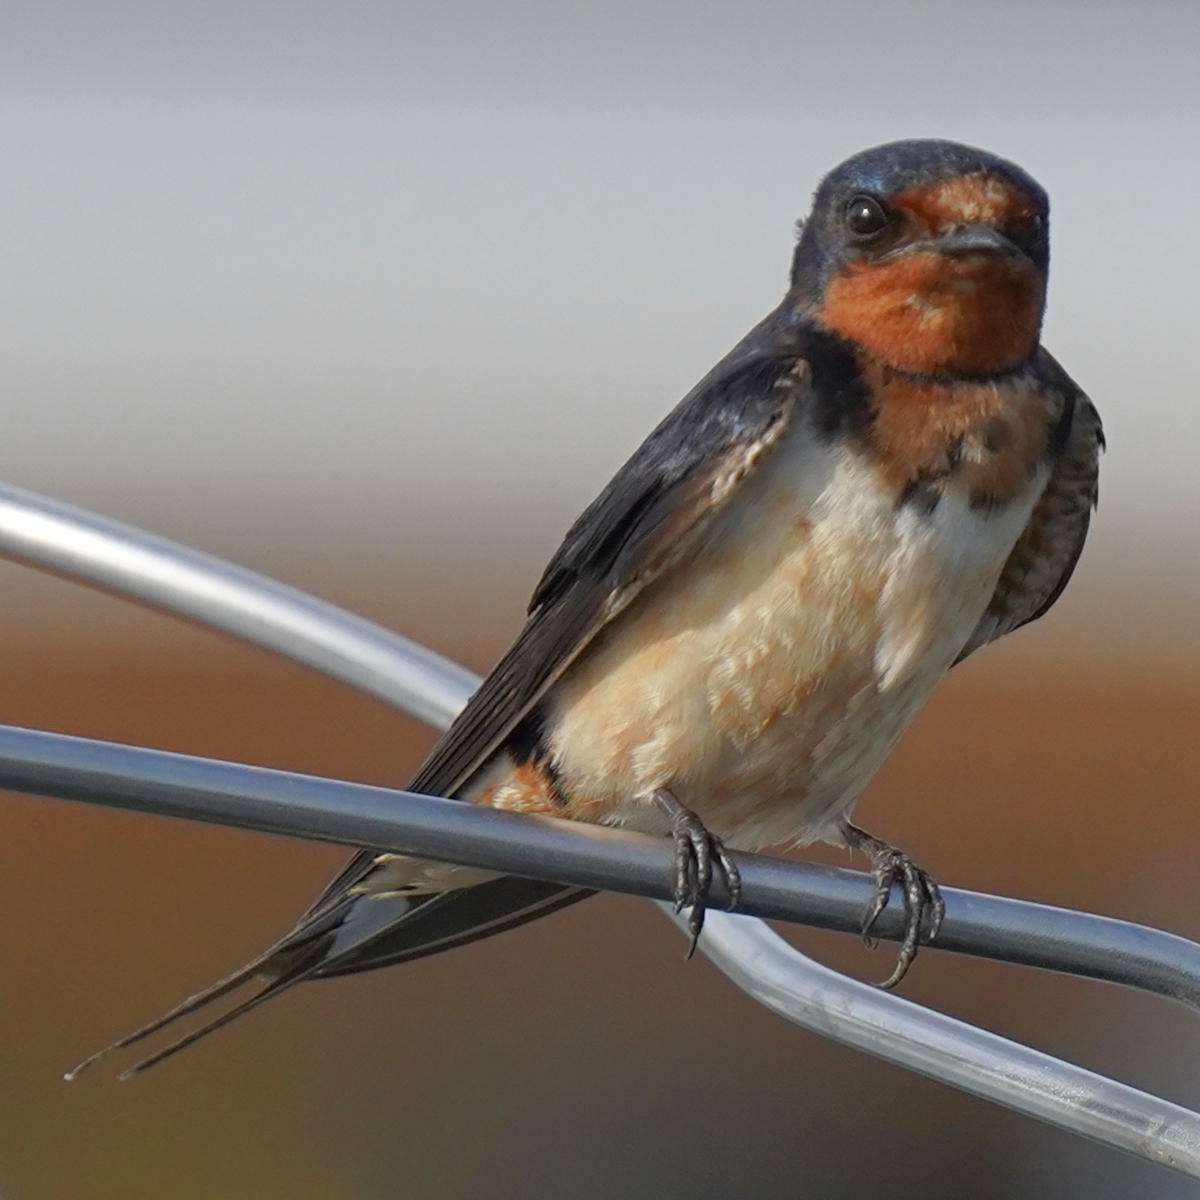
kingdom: Animalia
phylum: Chordata
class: Aves
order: Passeriformes
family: Hirundinidae
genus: Hirundo
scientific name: Hirundo rustica
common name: Barn swallow
